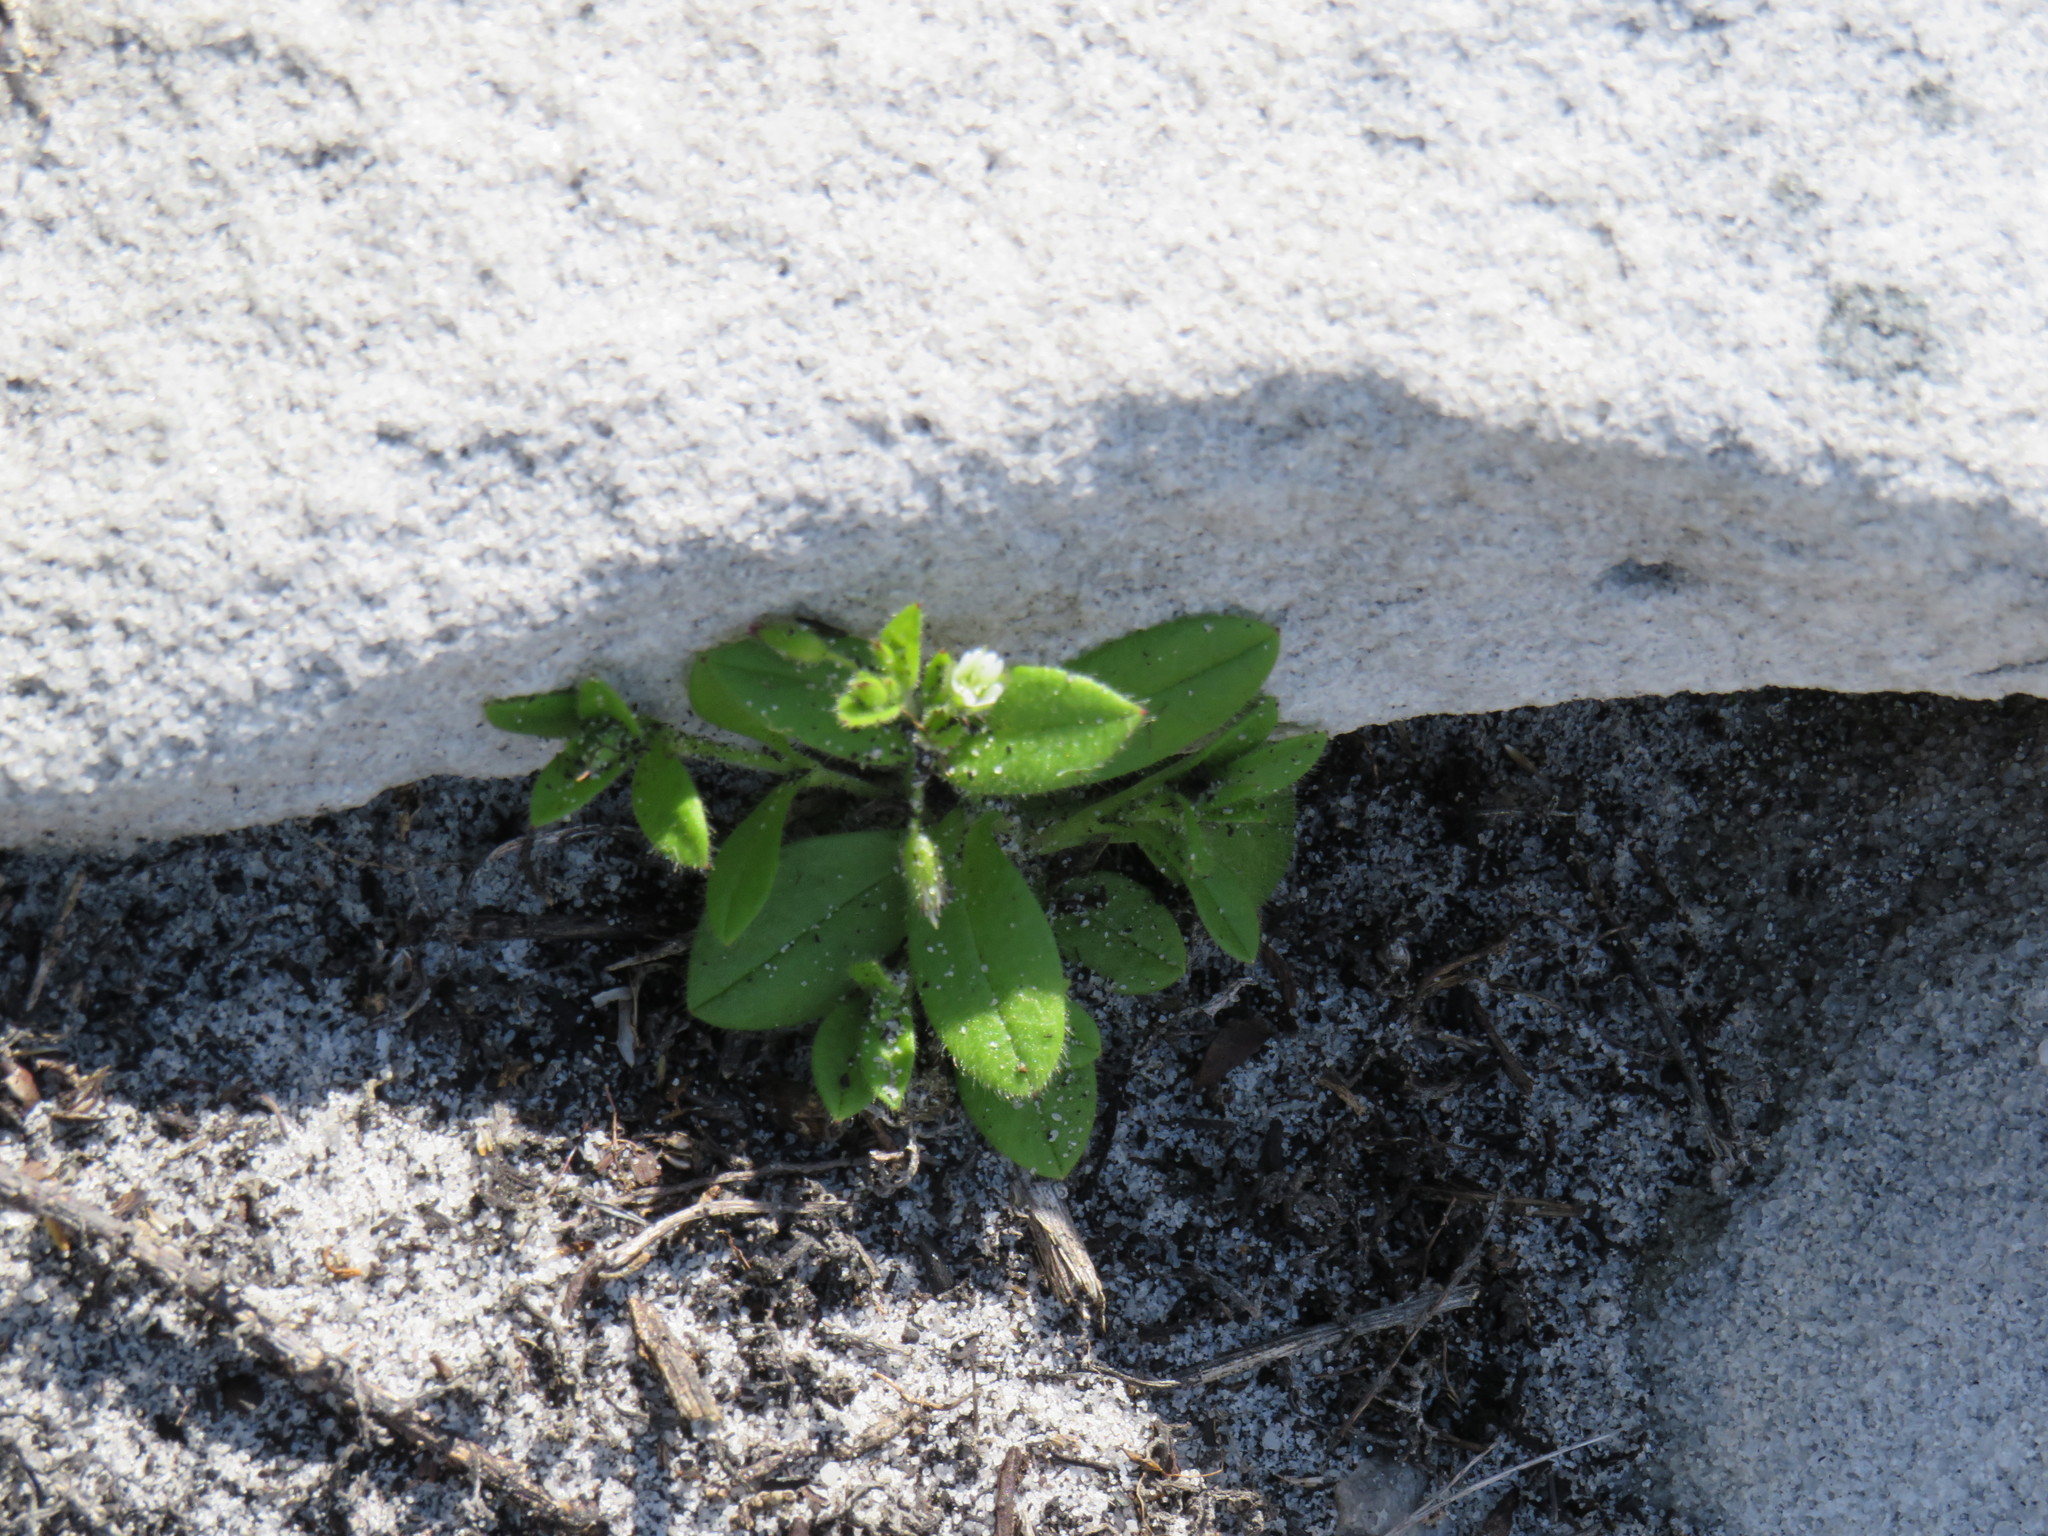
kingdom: Plantae
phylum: Tracheophyta
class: Magnoliopsida
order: Caryophyllales
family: Caryophyllaceae
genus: Cerastium
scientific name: Cerastium capense
